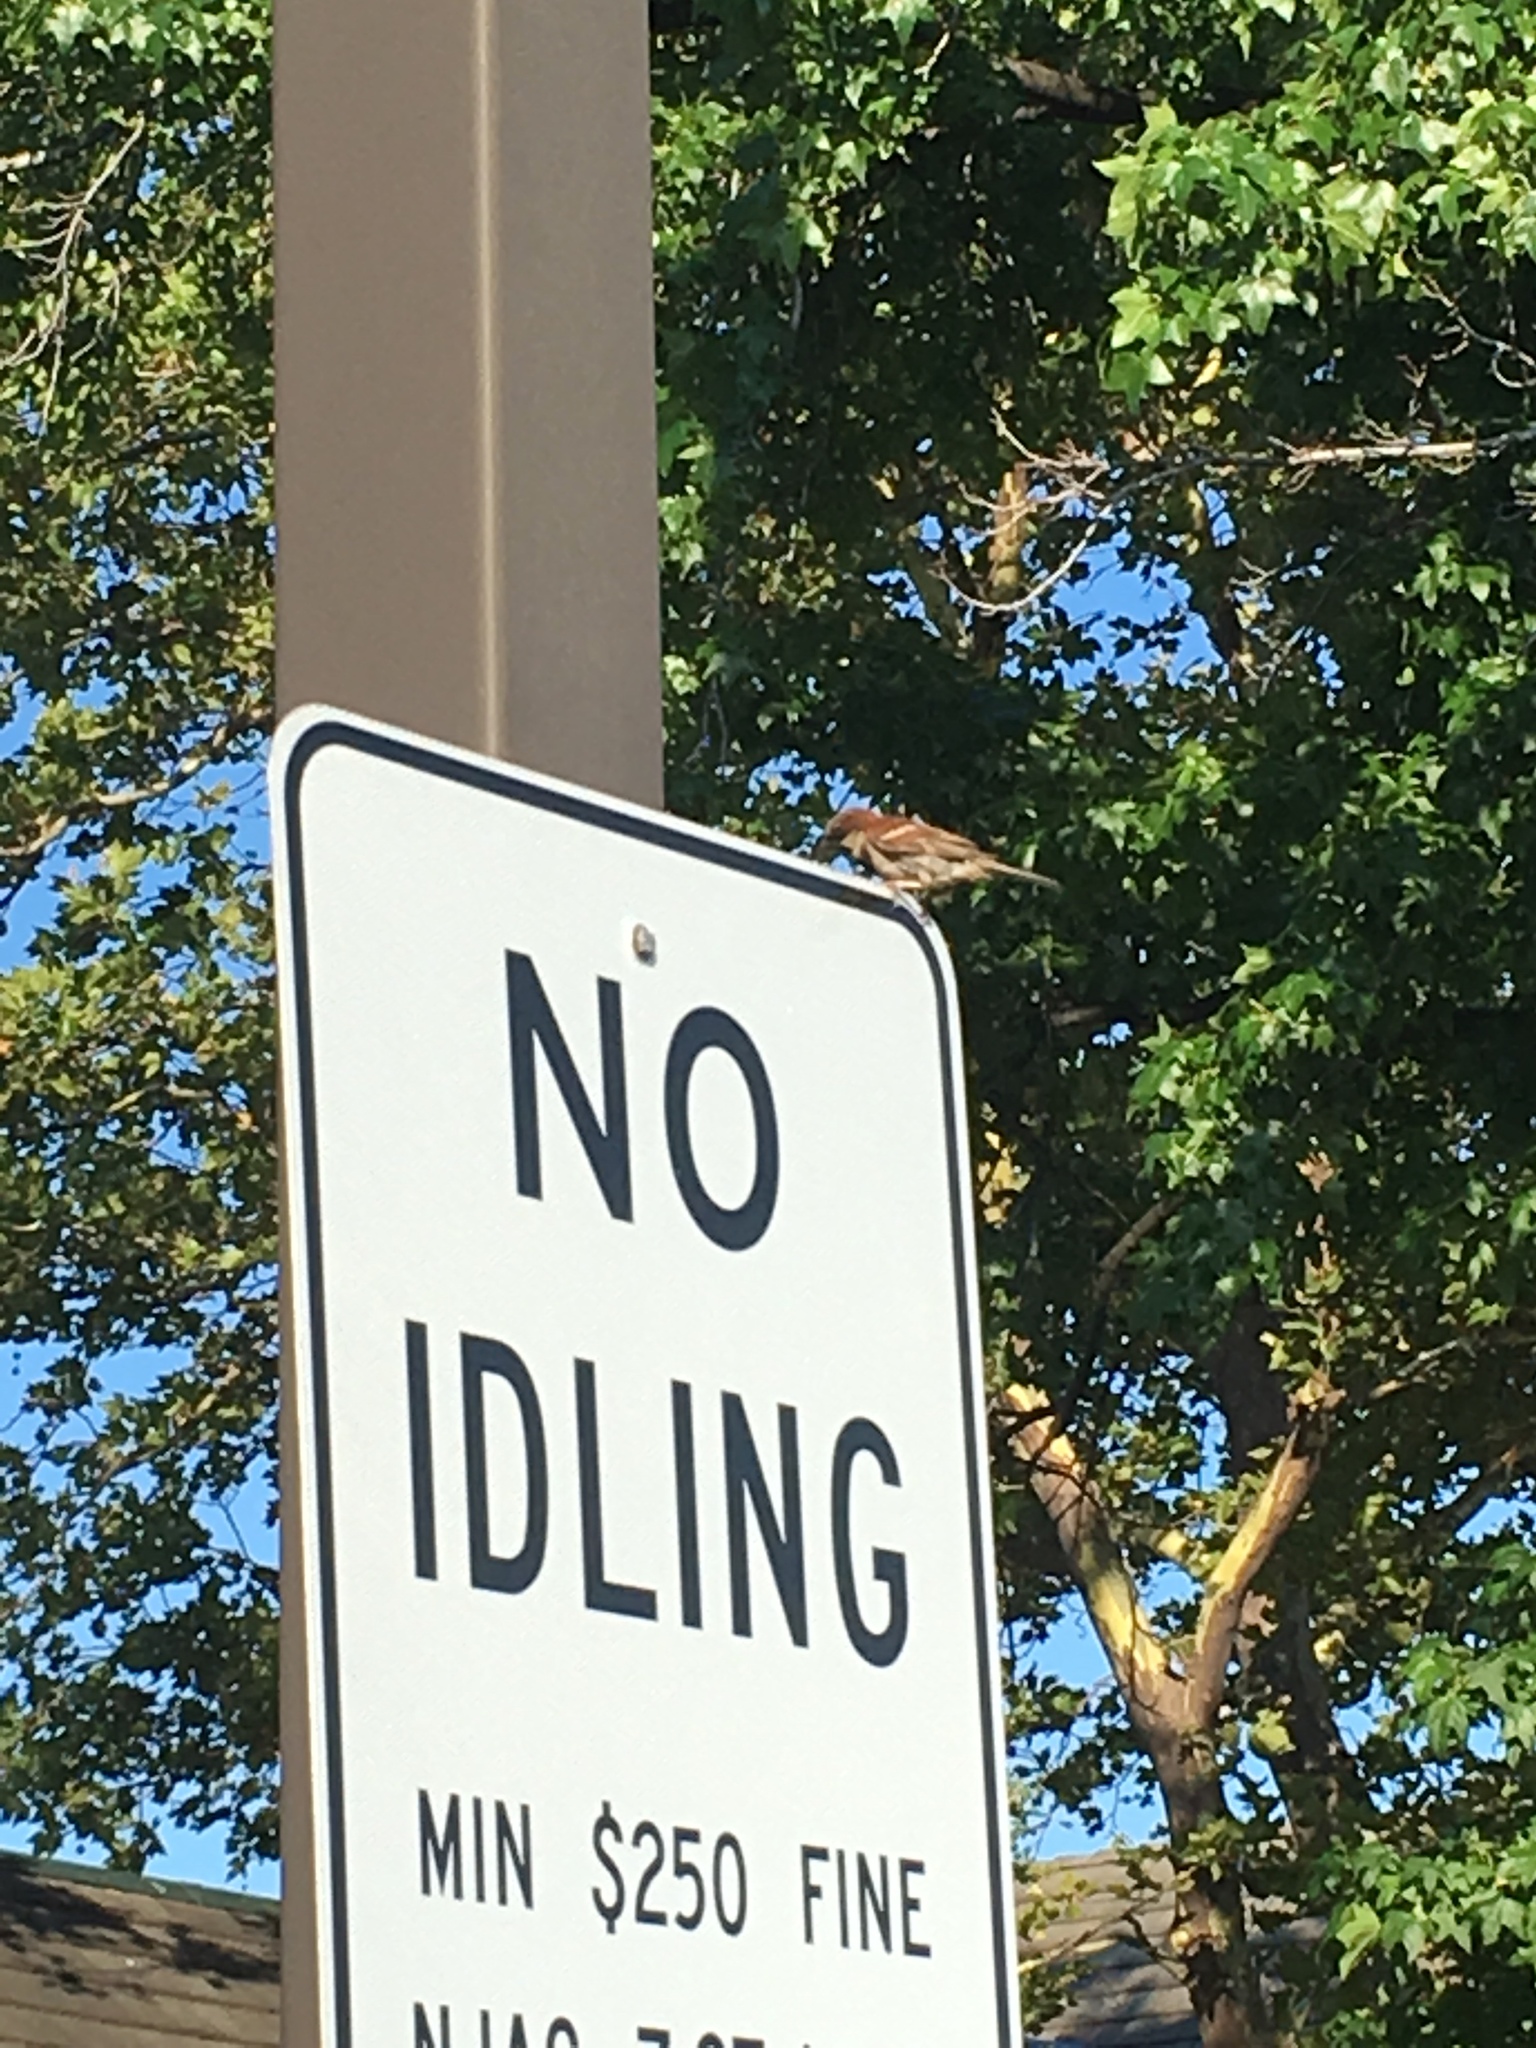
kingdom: Animalia
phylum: Chordata
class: Aves
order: Passeriformes
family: Passeridae
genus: Passer
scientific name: Passer domesticus
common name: House sparrow
